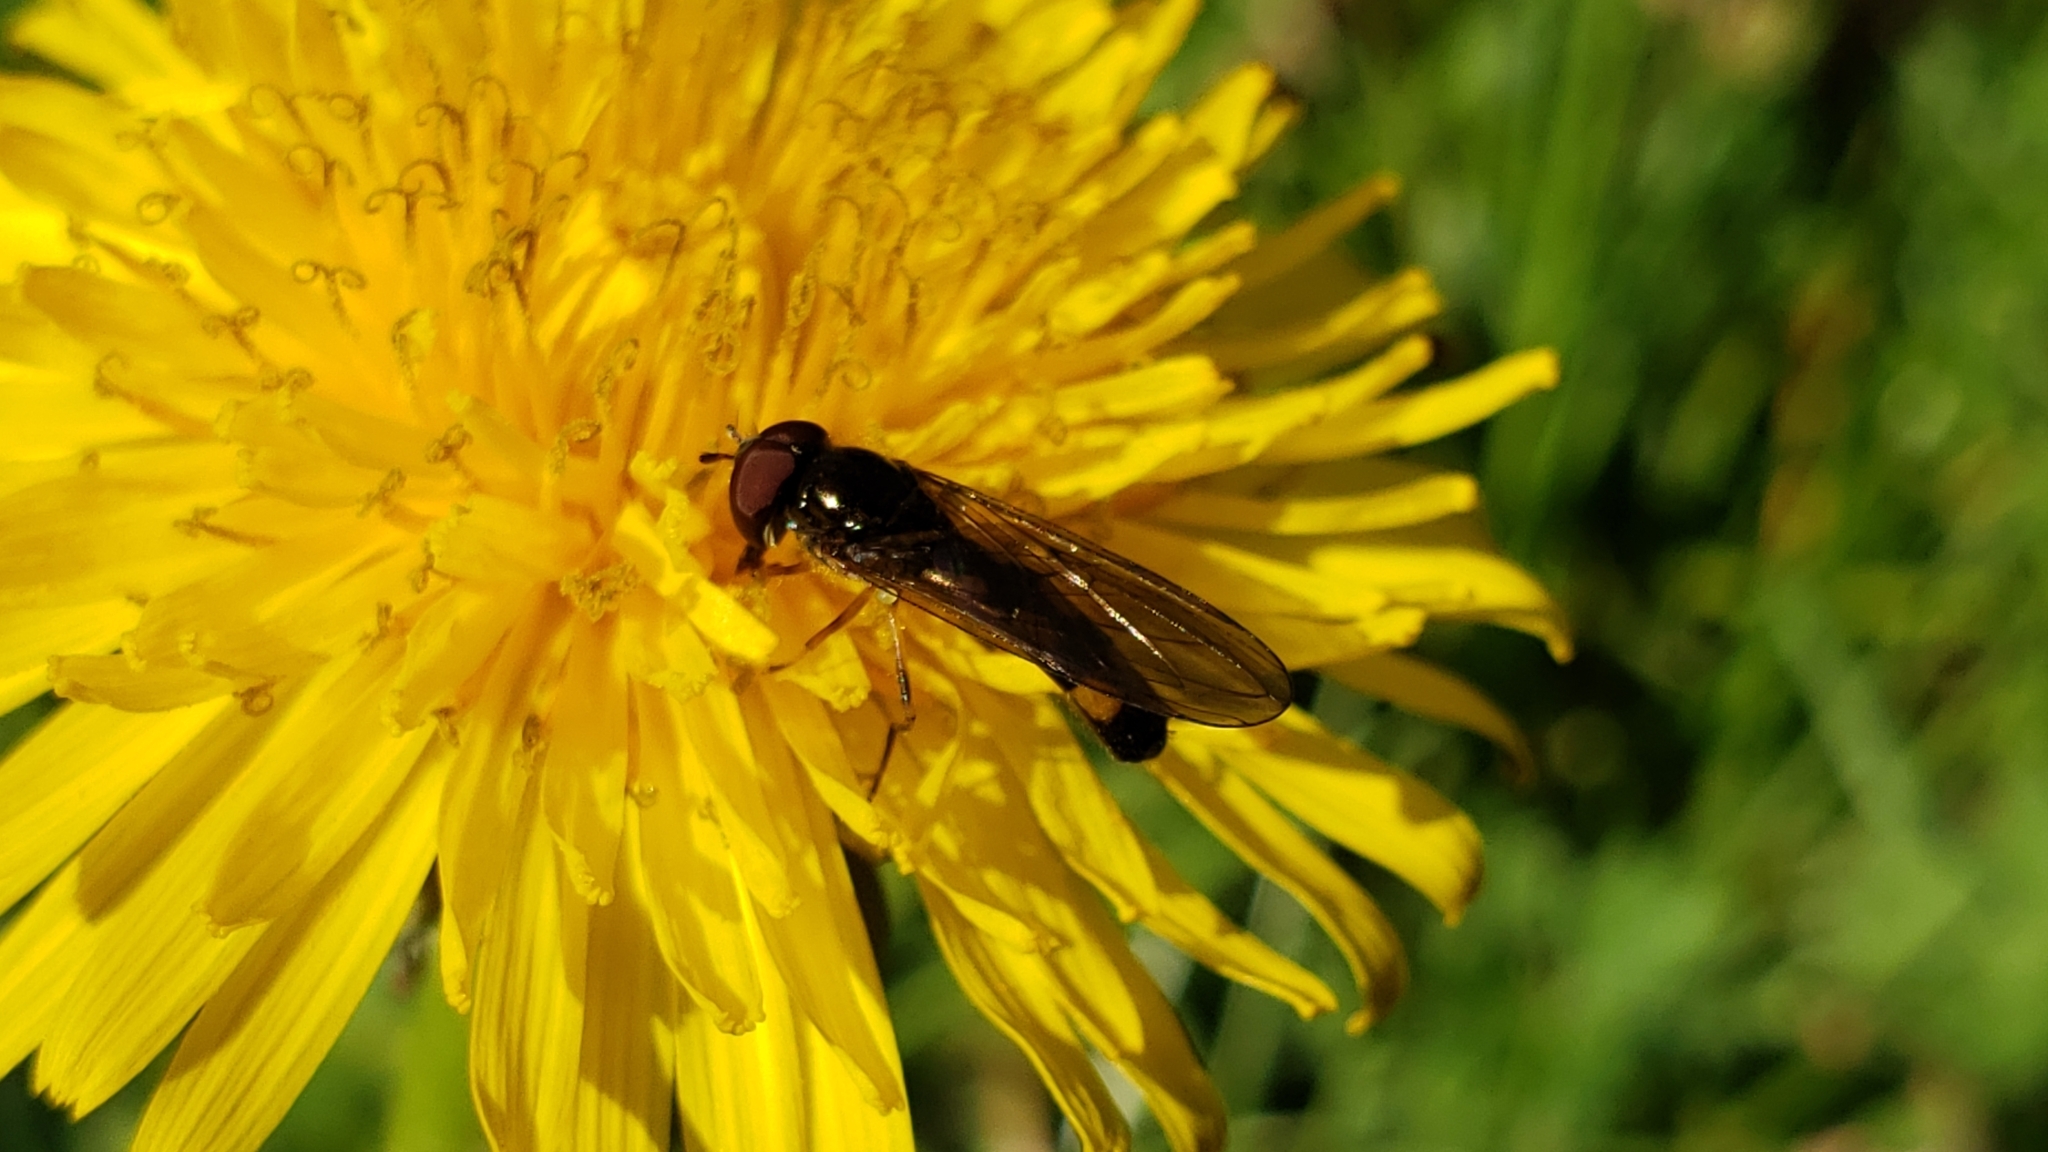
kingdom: Animalia
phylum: Arthropoda
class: Insecta
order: Diptera
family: Syrphidae
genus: Melanostoma
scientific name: Melanostoma mellina
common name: Hover fly
